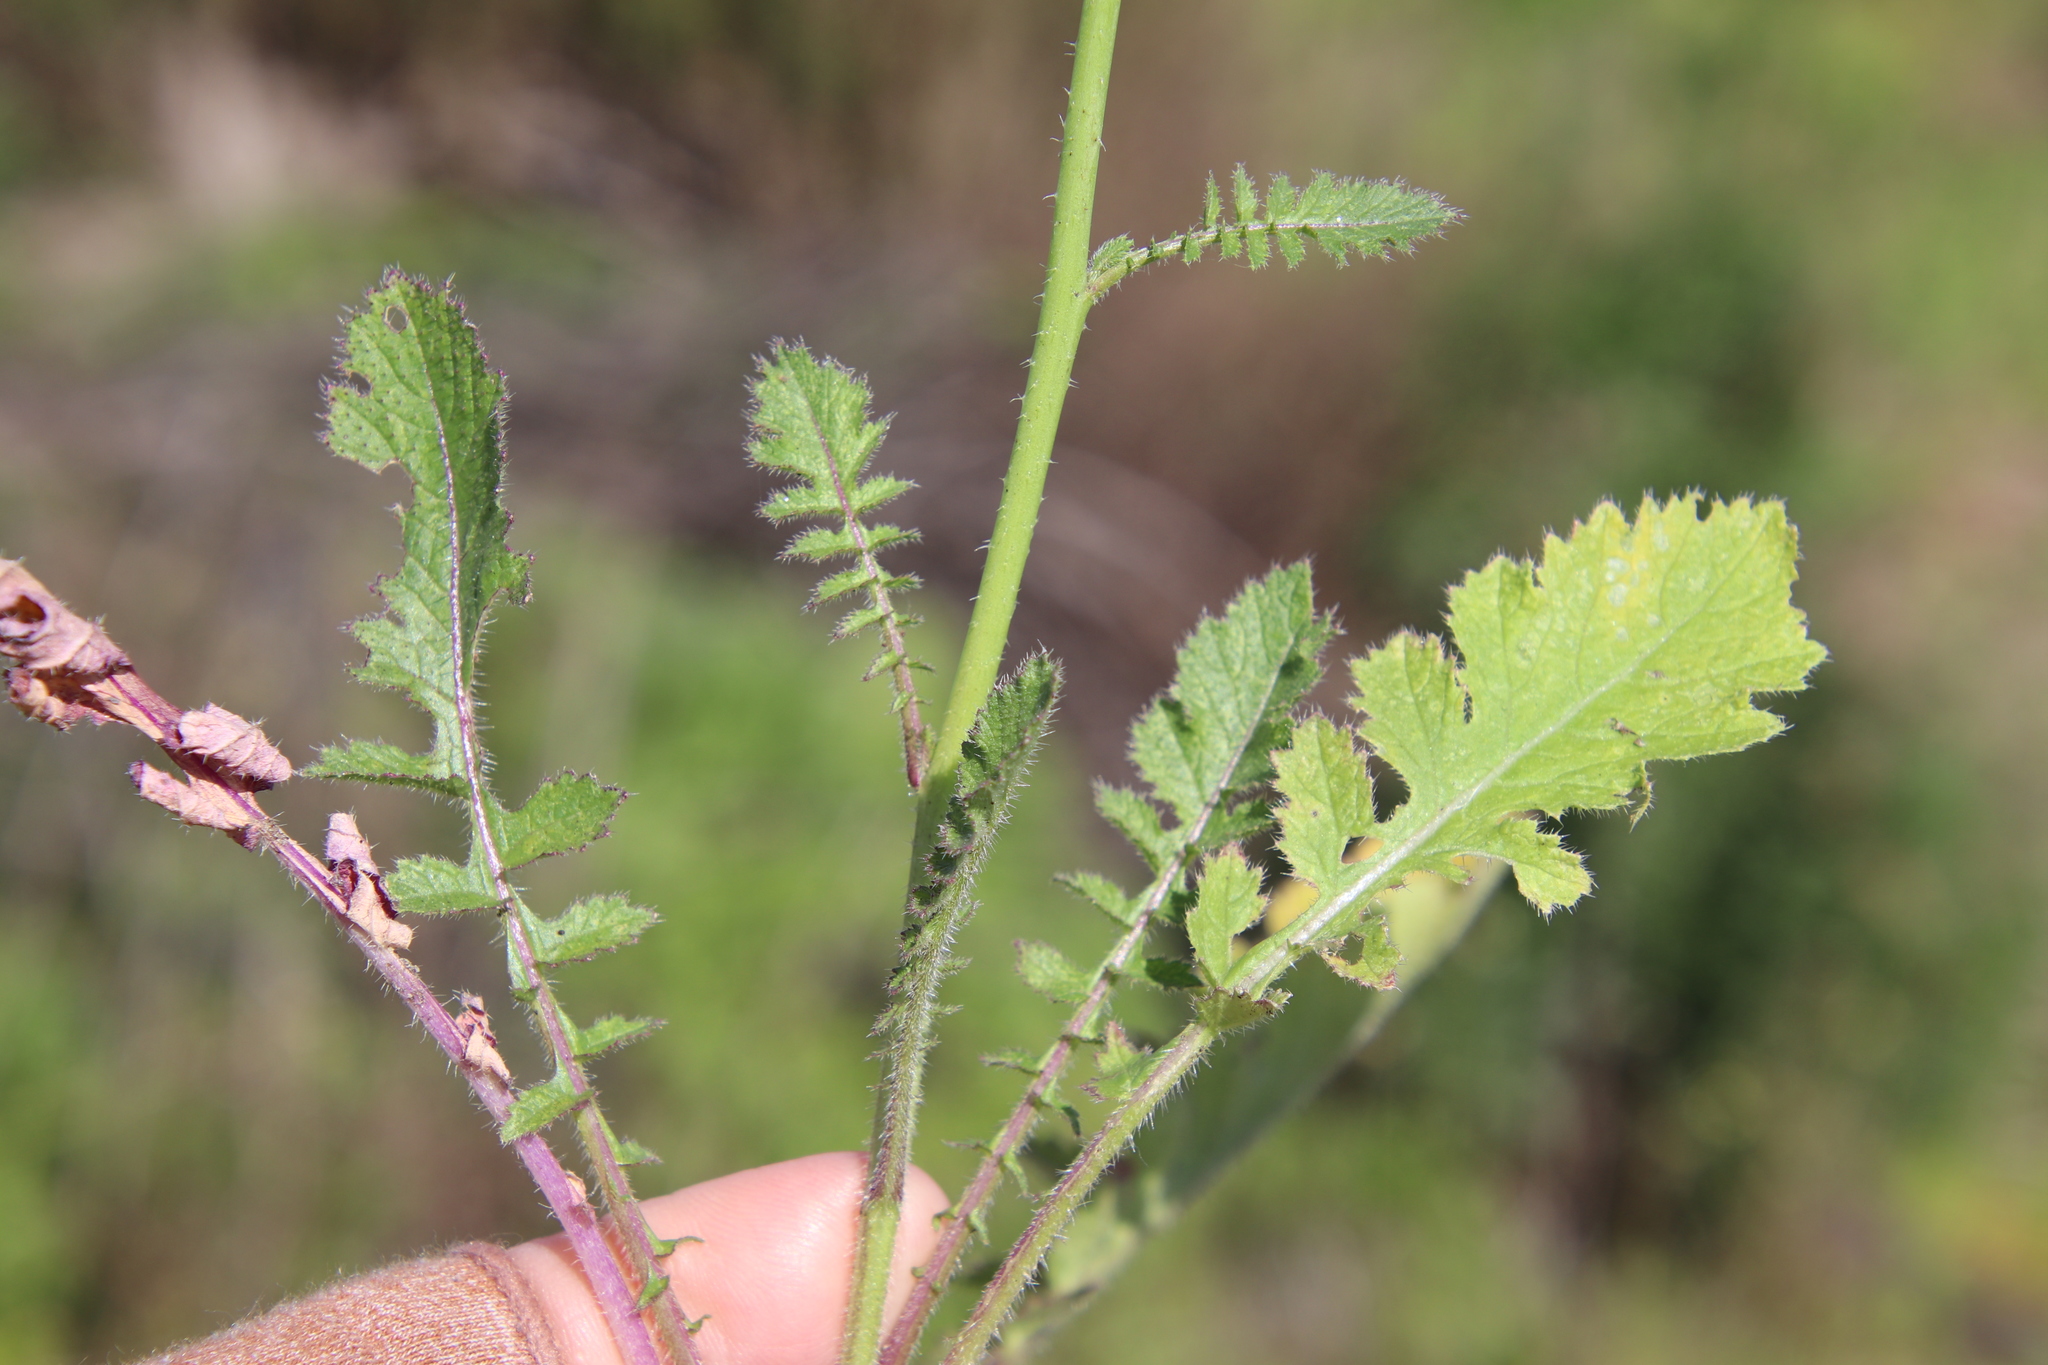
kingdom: Plantae
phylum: Tracheophyta
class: Magnoliopsida
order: Brassicales
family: Brassicaceae
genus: Brassica
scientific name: Brassica tournefortii
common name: Pale cabbage
